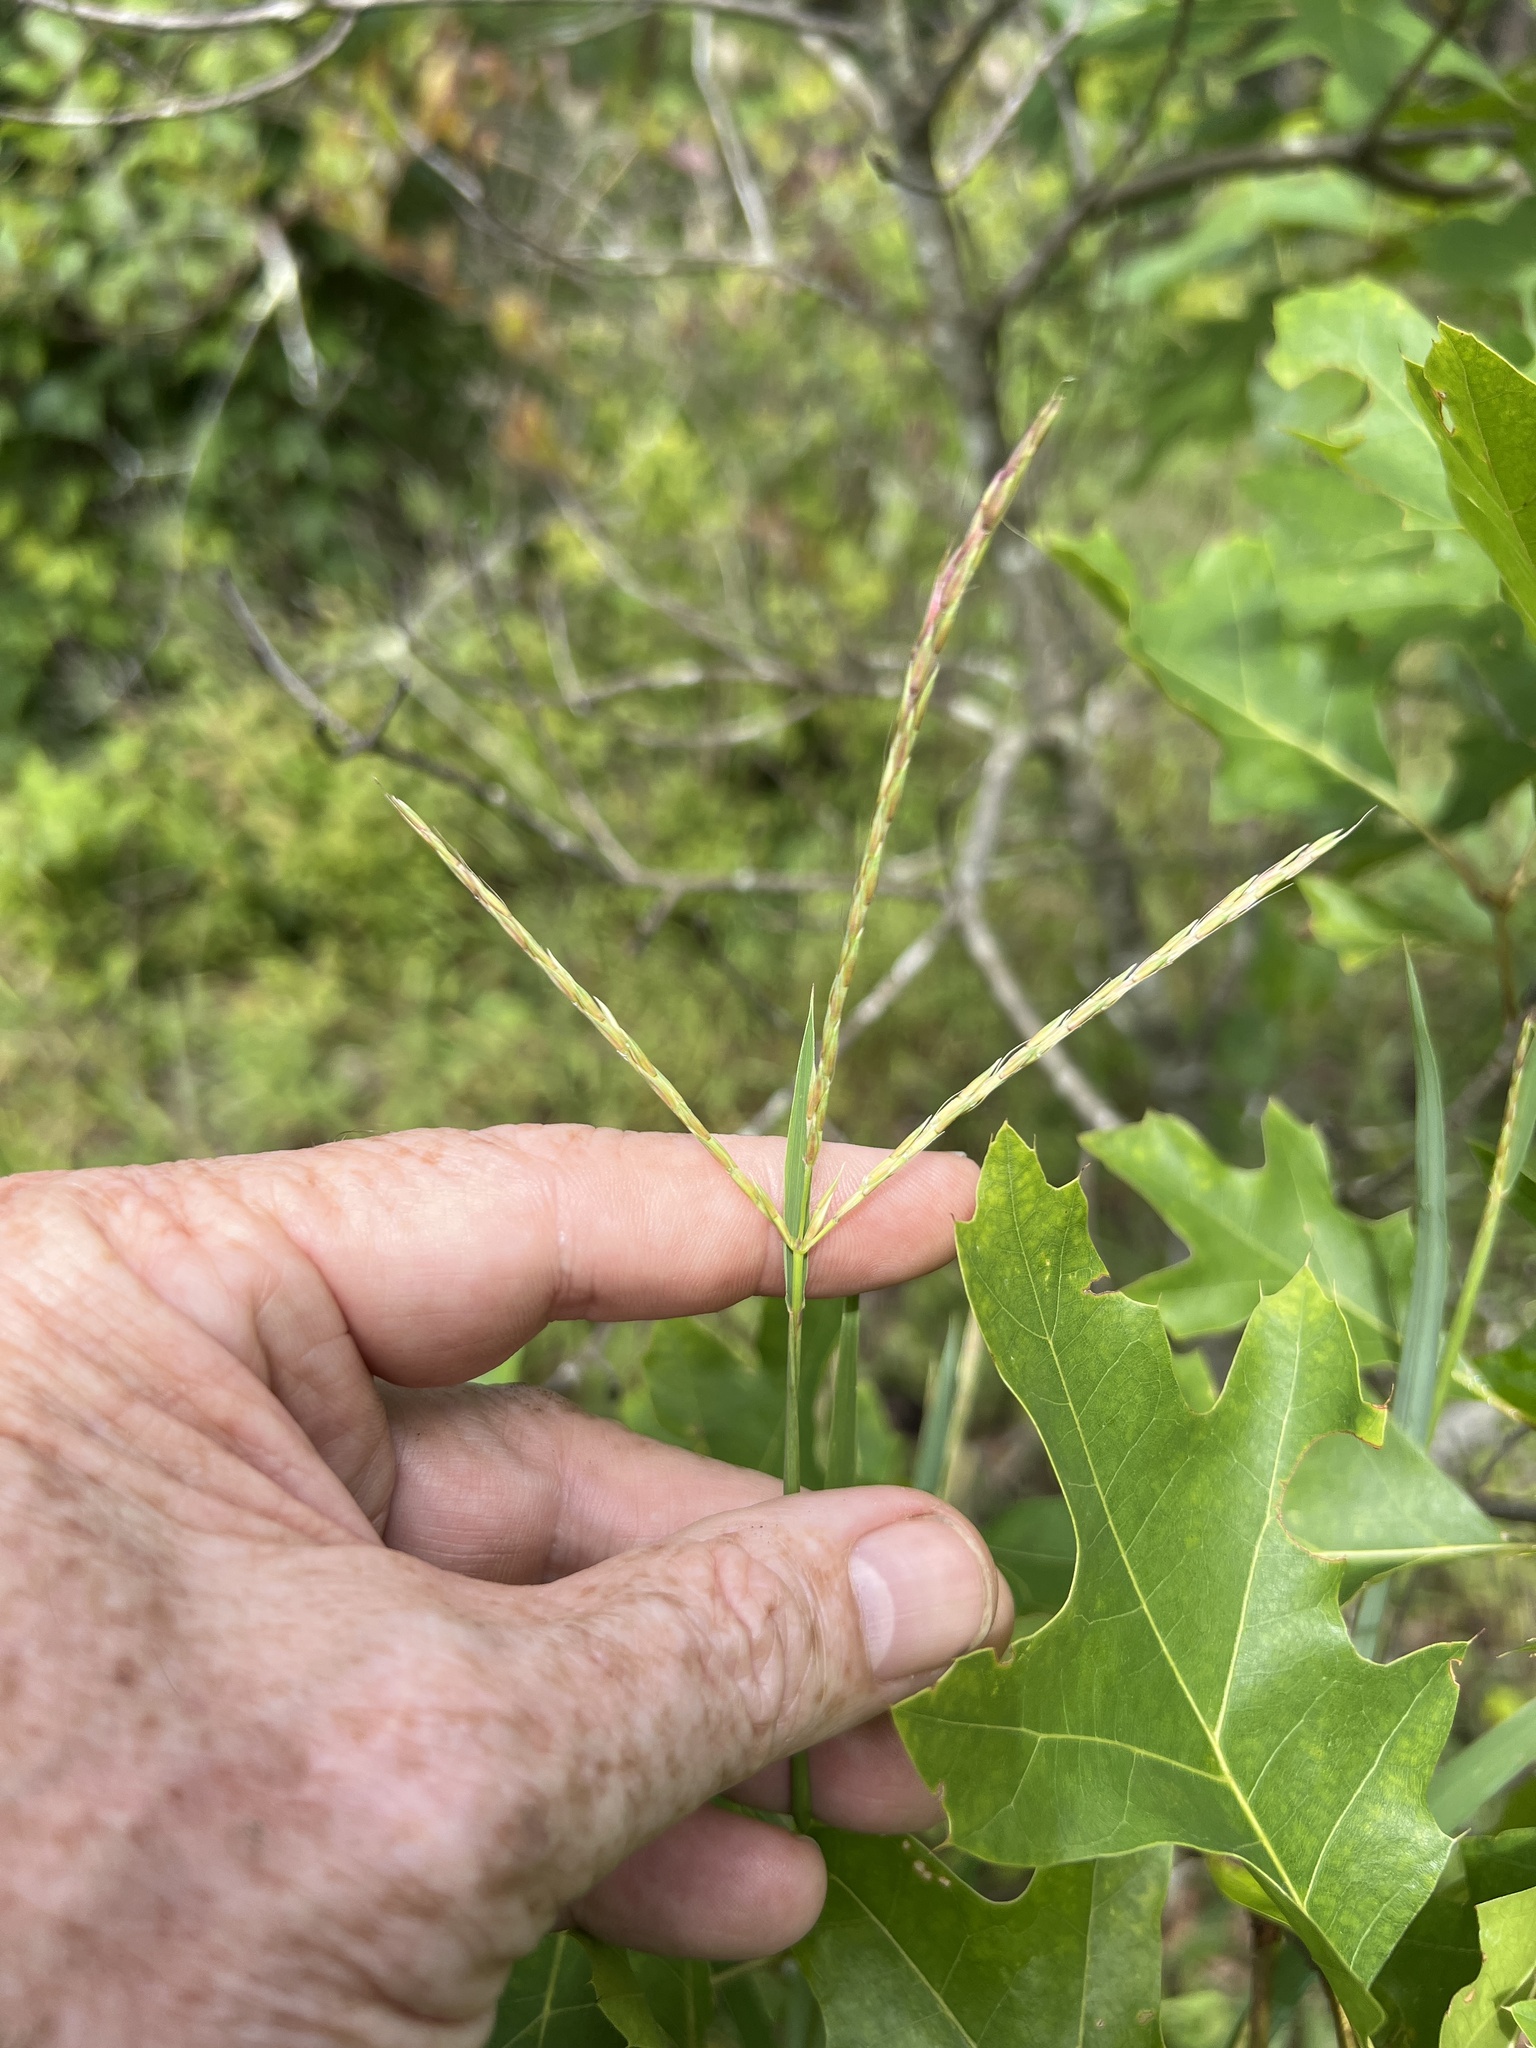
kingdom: Plantae
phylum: Tracheophyta
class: Liliopsida
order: Poales
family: Poaceae
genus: Andropogon
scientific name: Andropogon gerardi
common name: Big bluestem
